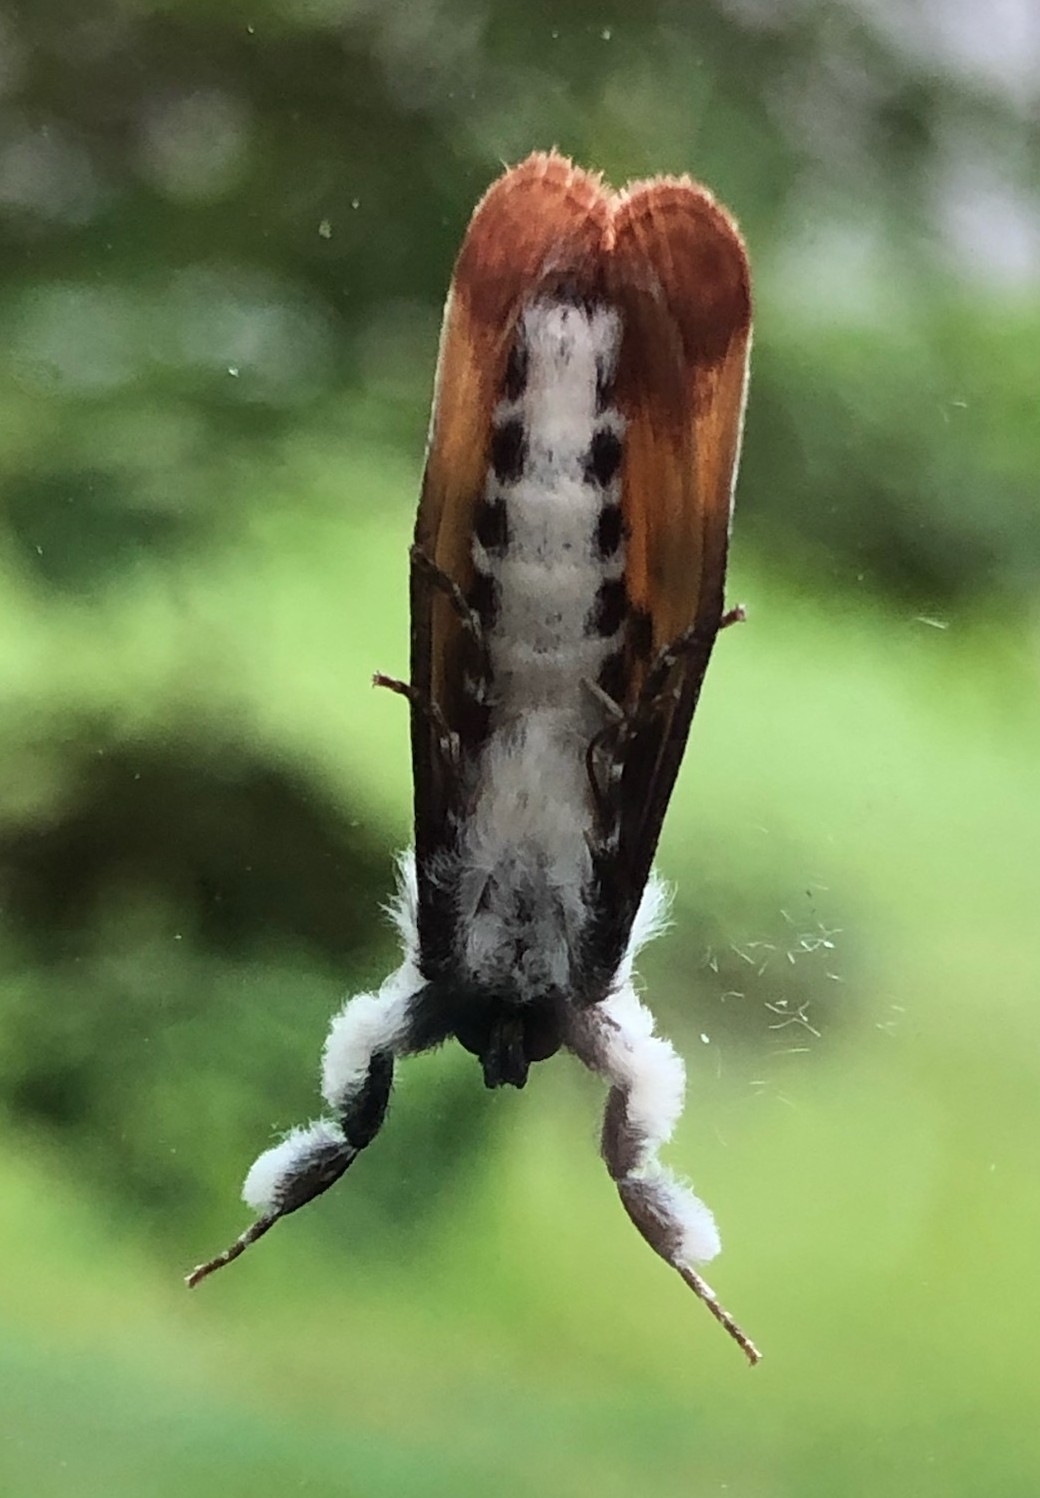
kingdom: Animalia
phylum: Arthropoda
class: Insecta
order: Lepidoptera
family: Noctuidae
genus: Eudryas
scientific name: Eudryas unio
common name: Pearly wood-nymph
